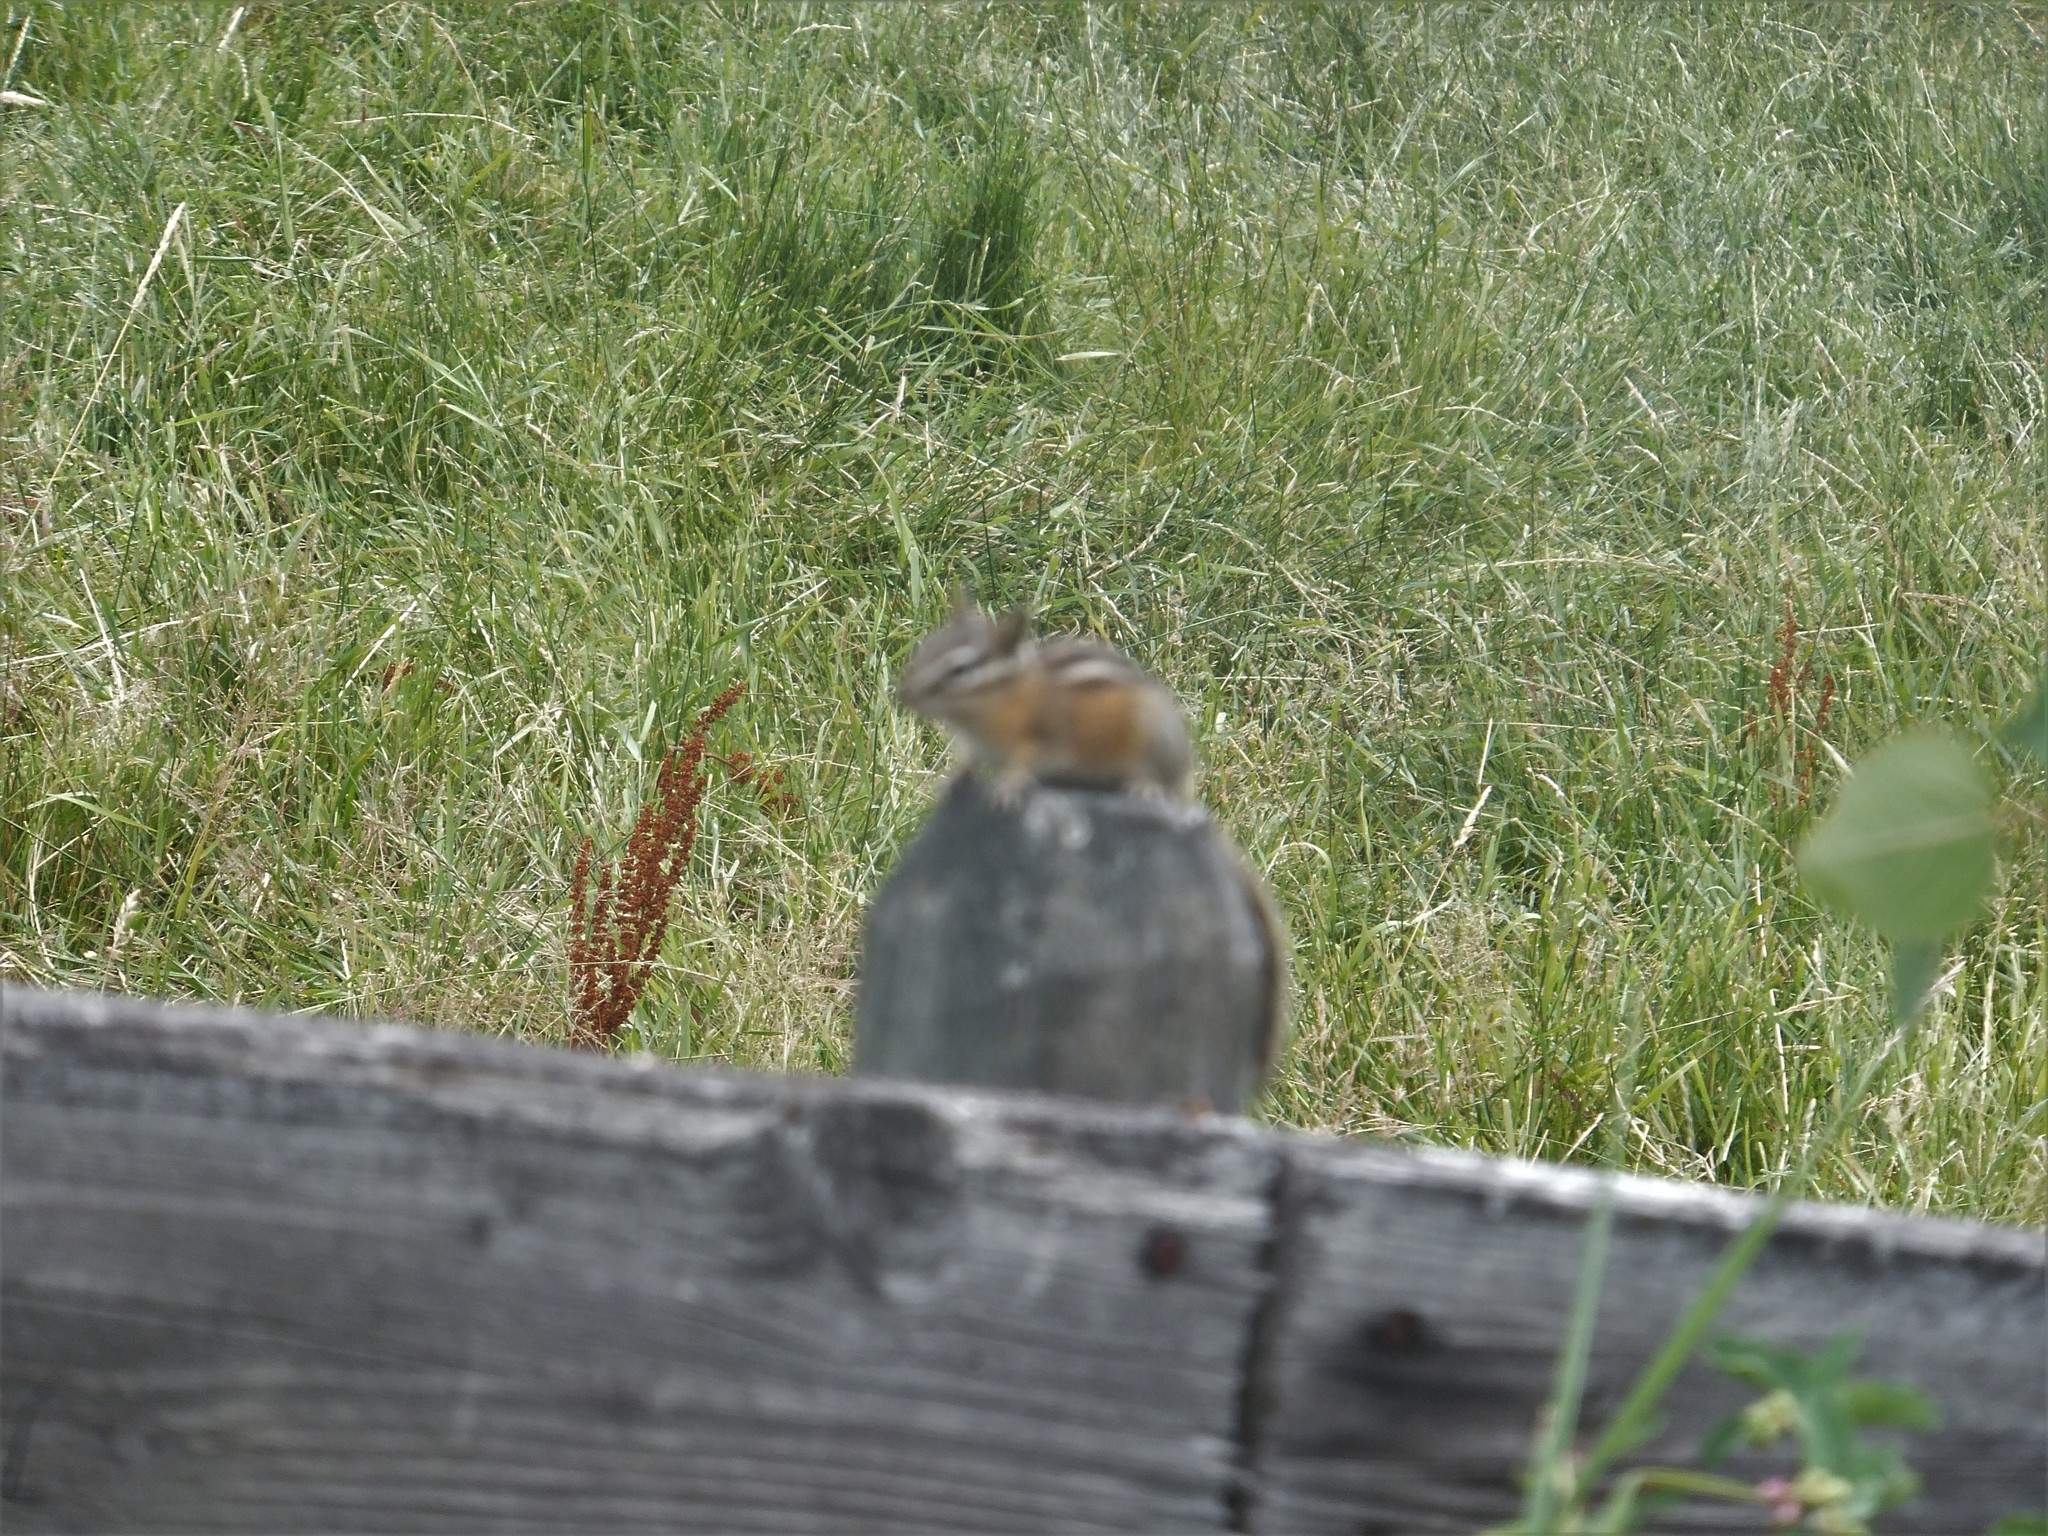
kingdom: Animalia
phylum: Chordata
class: Mammalia
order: Rodentia
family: Sciuridae
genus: Tamias
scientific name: Tamias amoenus
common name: Yellow-pine chipmunk
